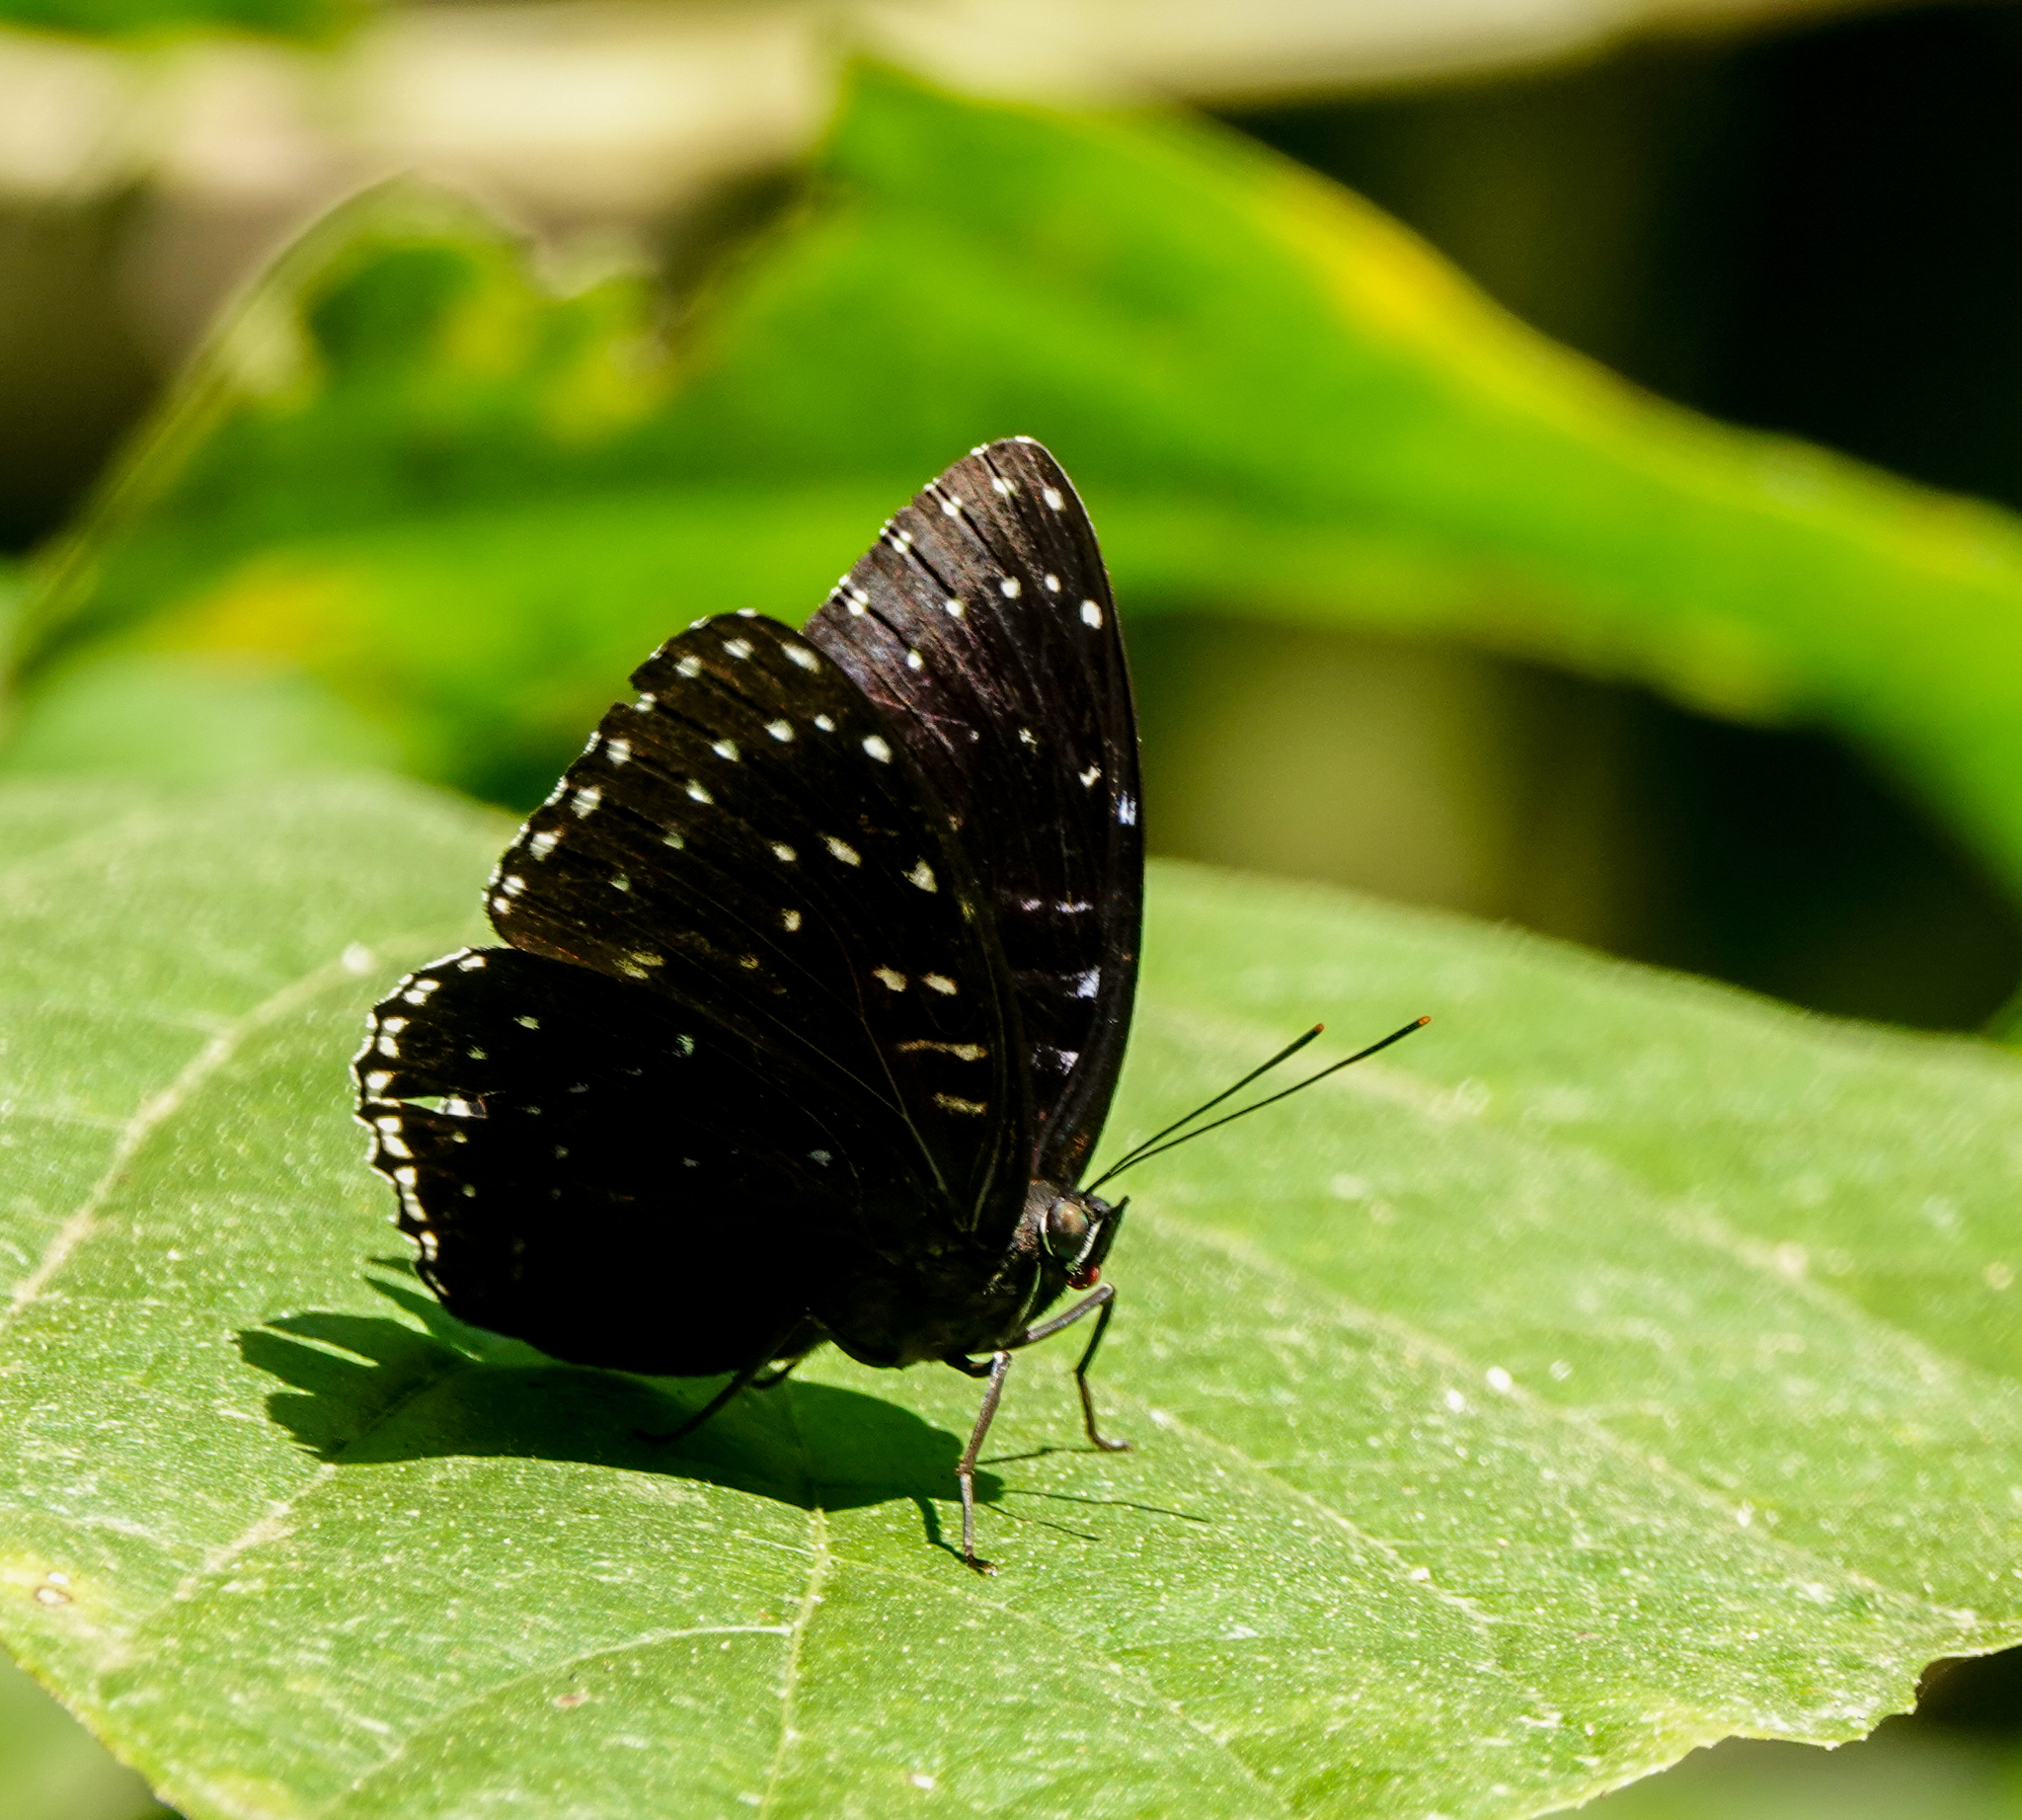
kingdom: Animalia
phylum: Arthropoda
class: Insecta
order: Lepidoptera
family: Nymphalidae
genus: Stibochiona
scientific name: Stibochiona nicea
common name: Popinjay
